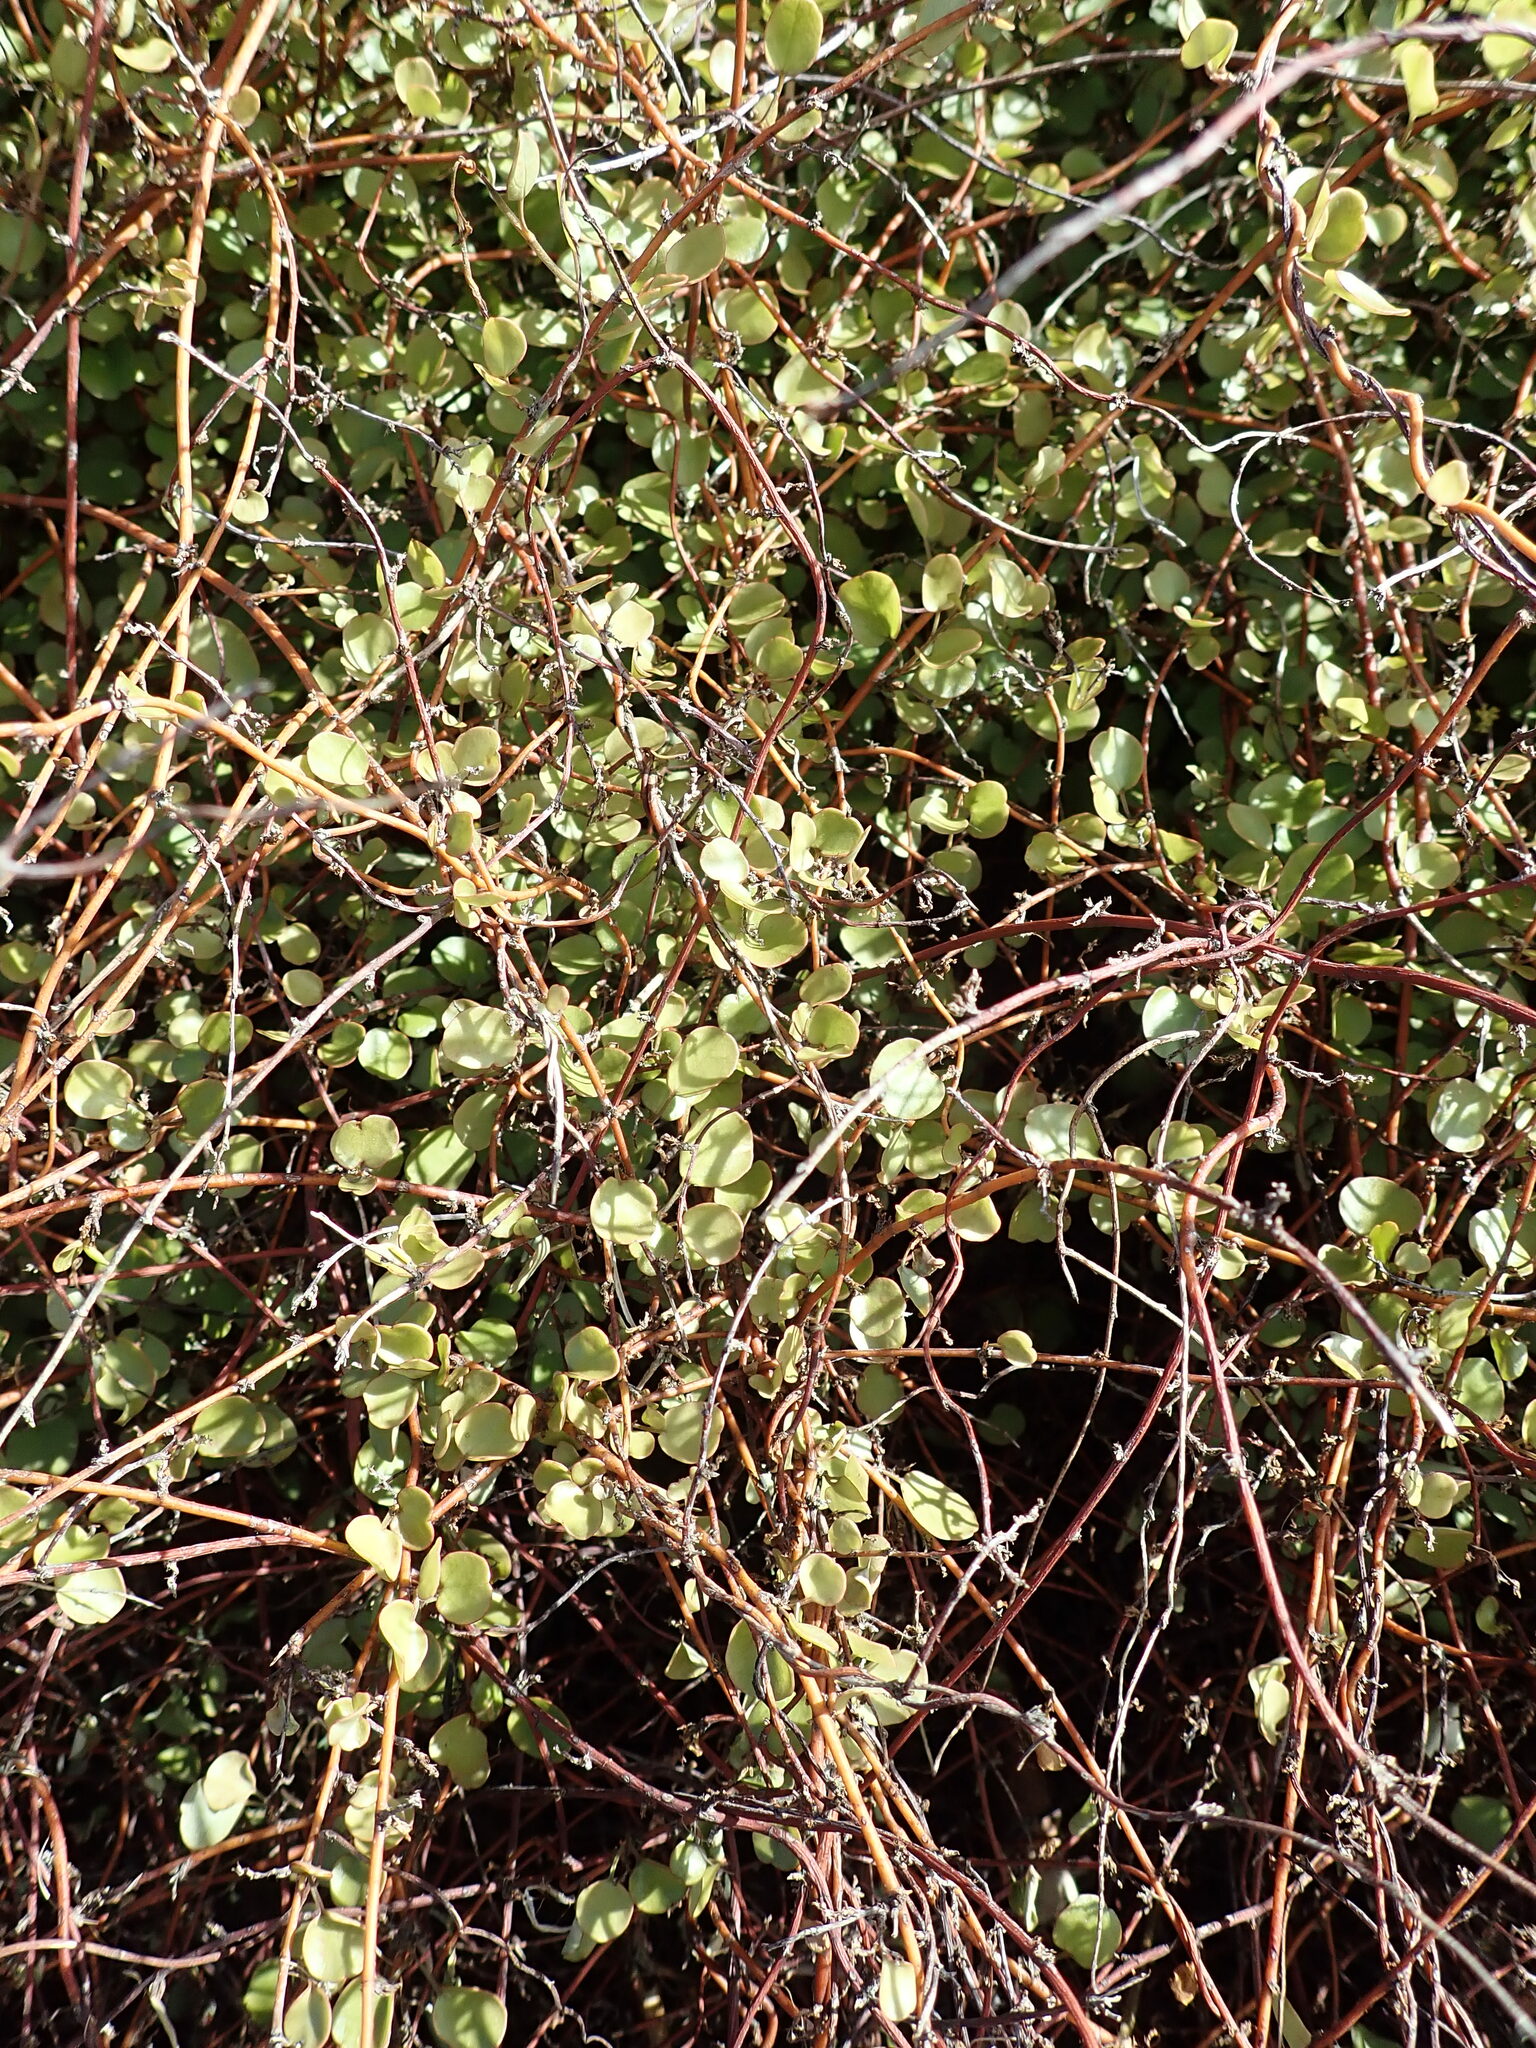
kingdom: Plantae
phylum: Tracheophyta
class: Magnoliopsida
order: Caryophyllales
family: Polygonaceae
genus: Muehlenbeckia
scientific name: Muehlenbeckia complexa
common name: Wireplant
